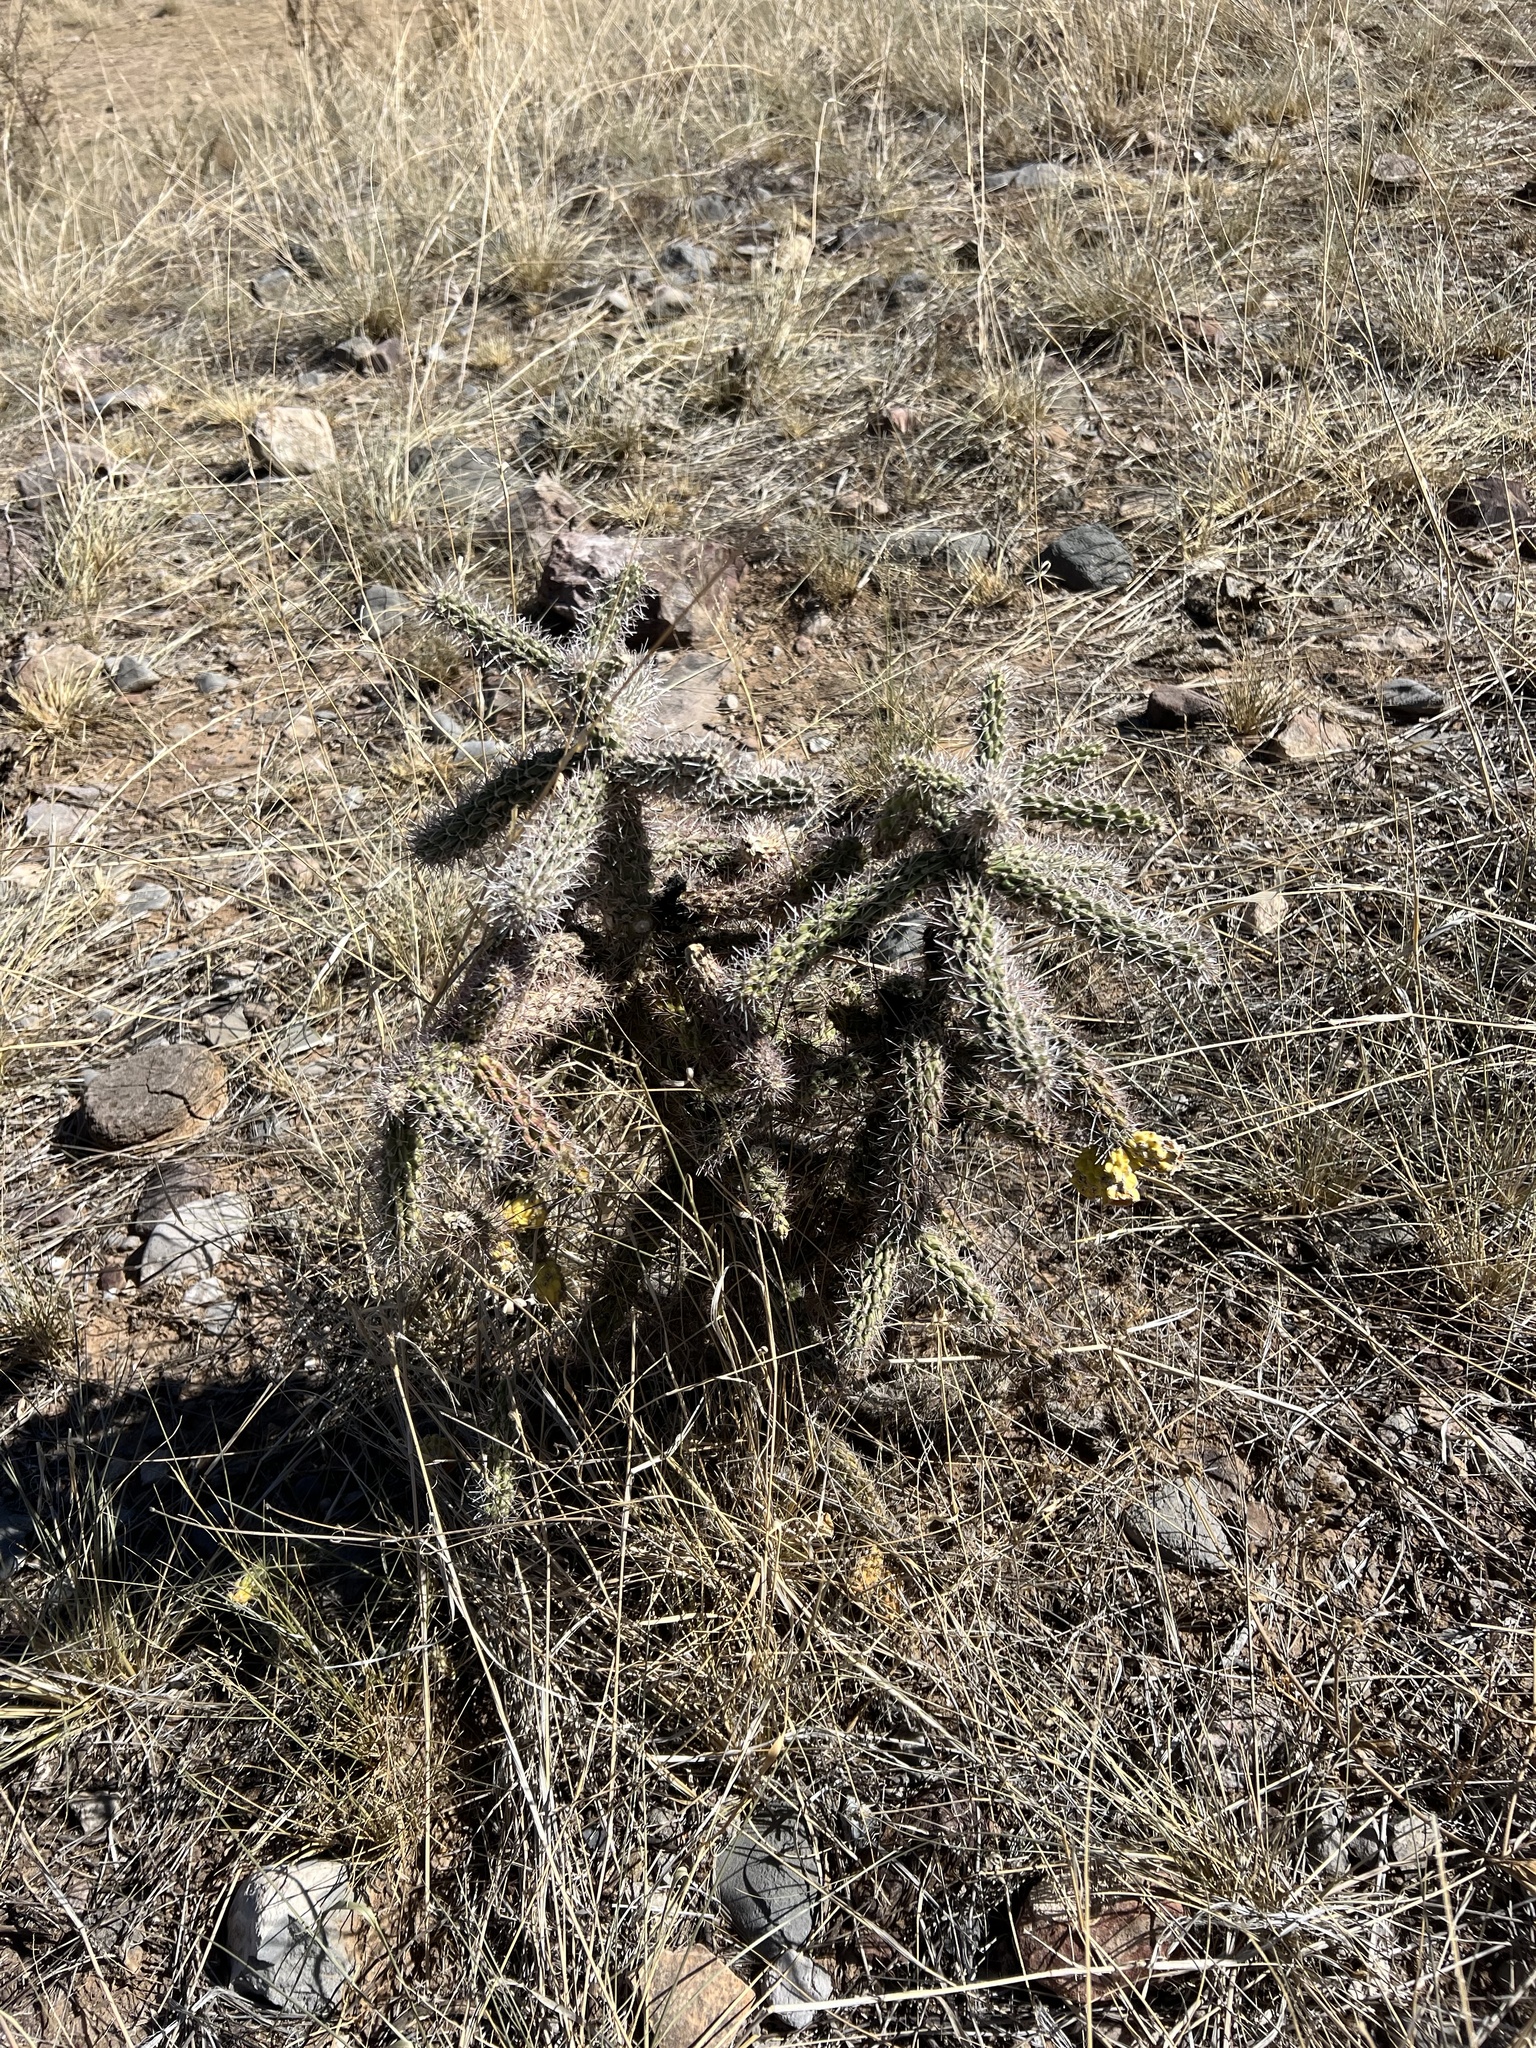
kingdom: Plantae
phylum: Tracheophyta
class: Magnoliopsida
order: Caryophyllales
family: Cactaceae
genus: Cylindropuntia
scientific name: Cylindropuntia imbricata
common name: Candelabrum cactus
